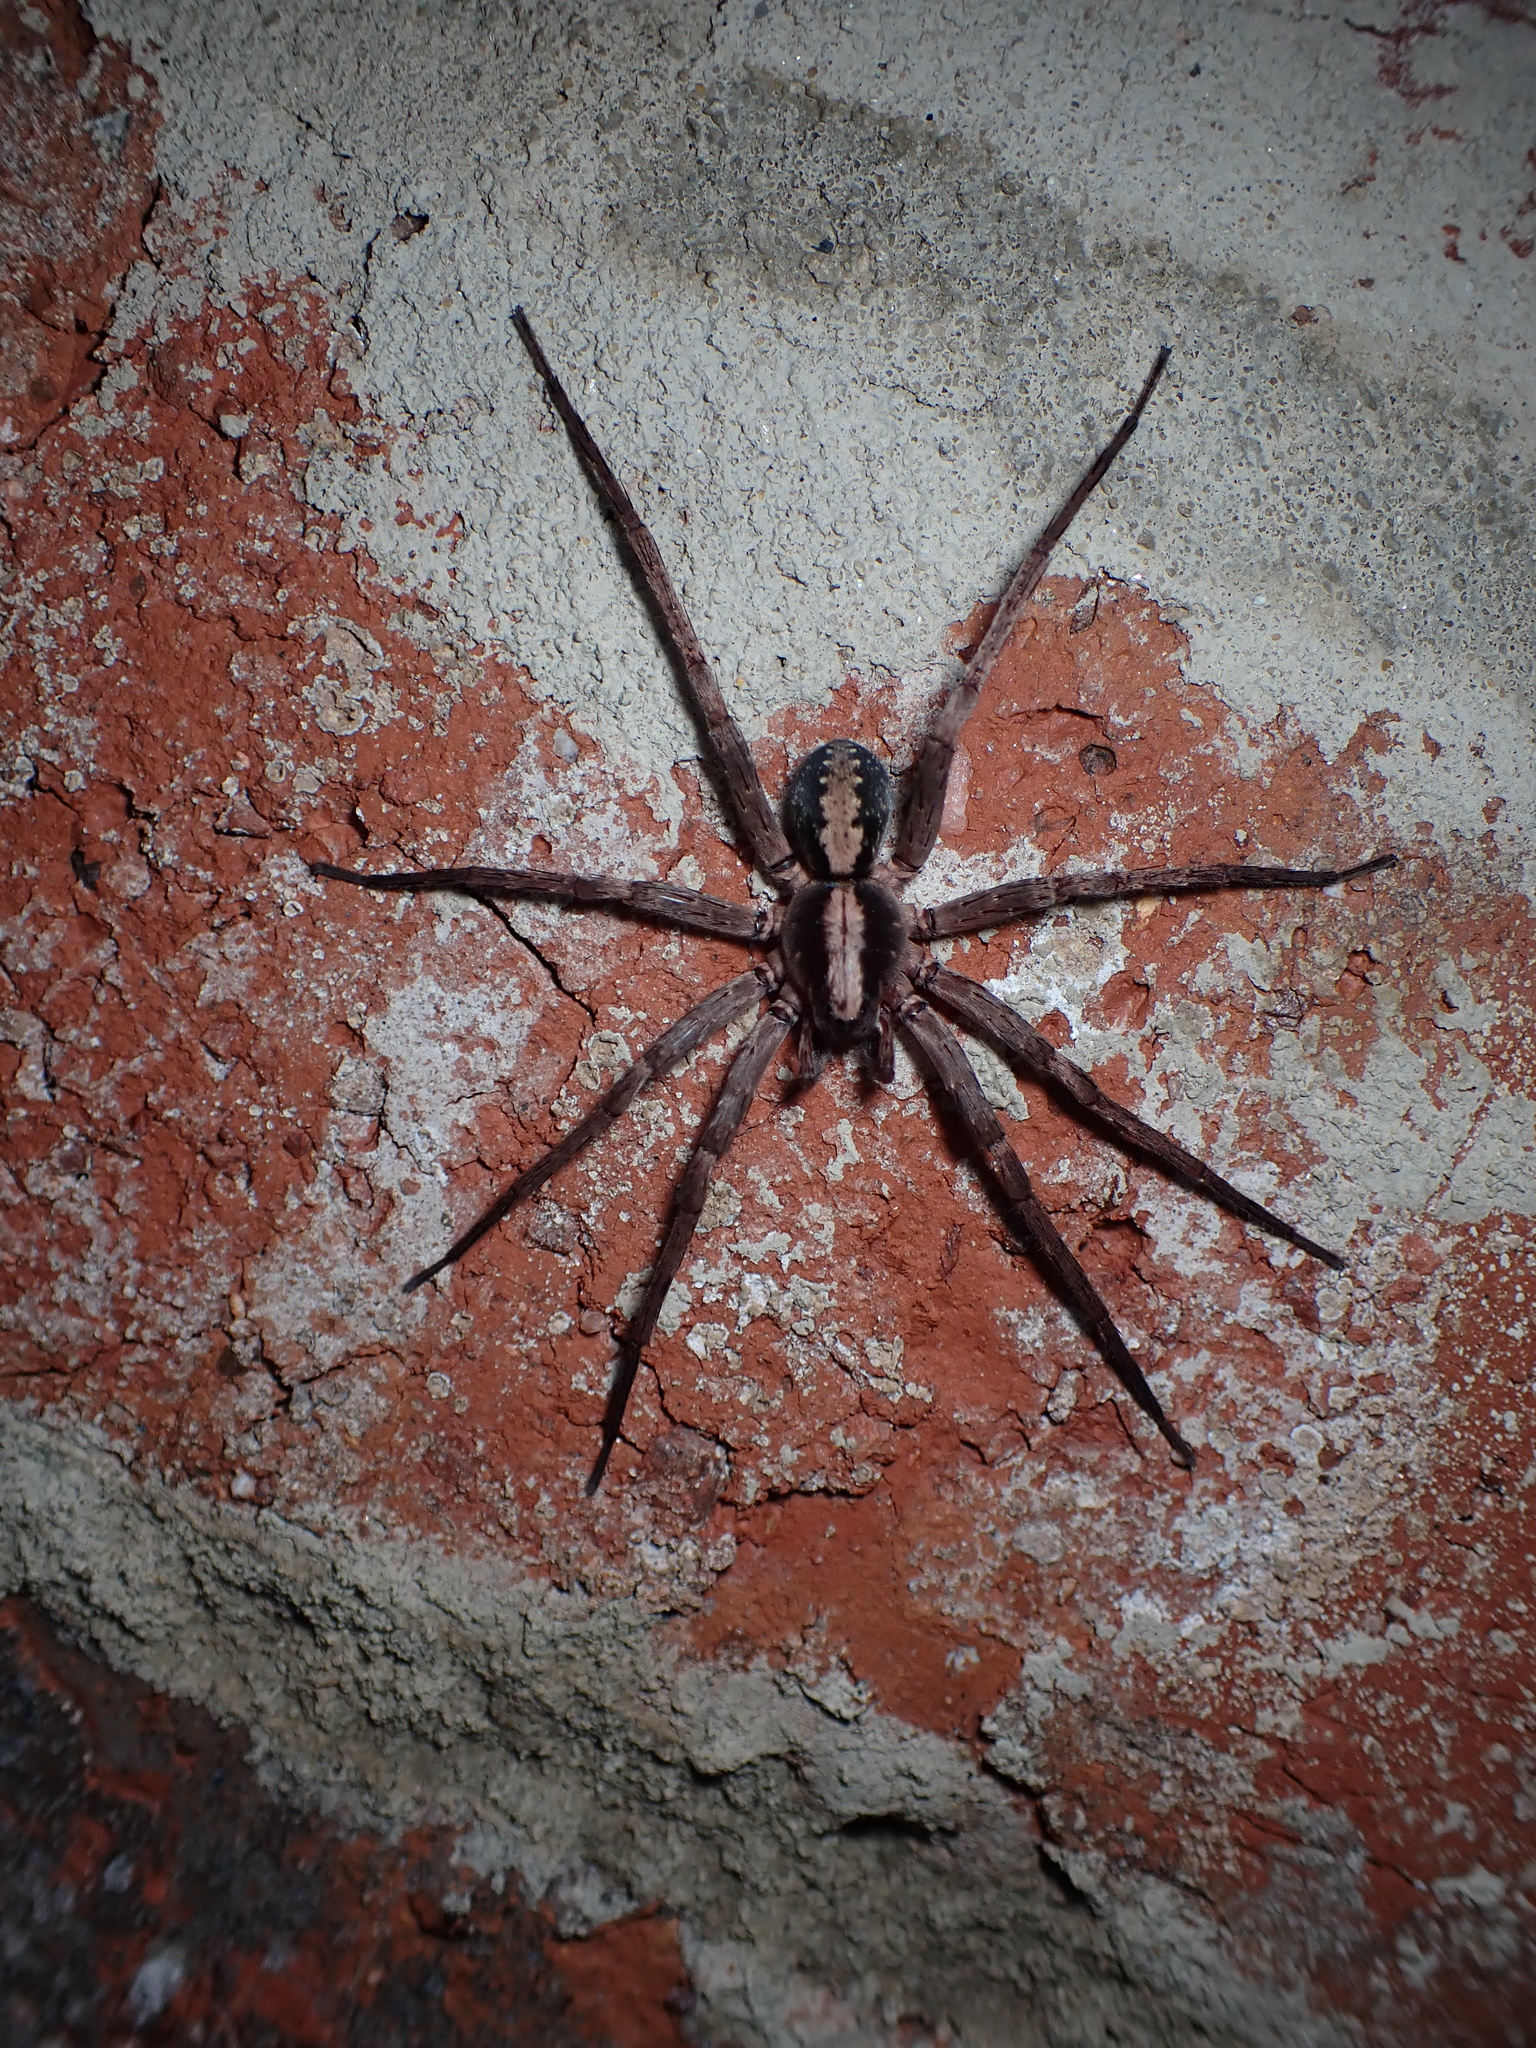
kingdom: Animalia
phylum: Arthropoda
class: Arachnida
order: Araneae
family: Ctenidae
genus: Ctenus
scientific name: Ctenus hibernalis
